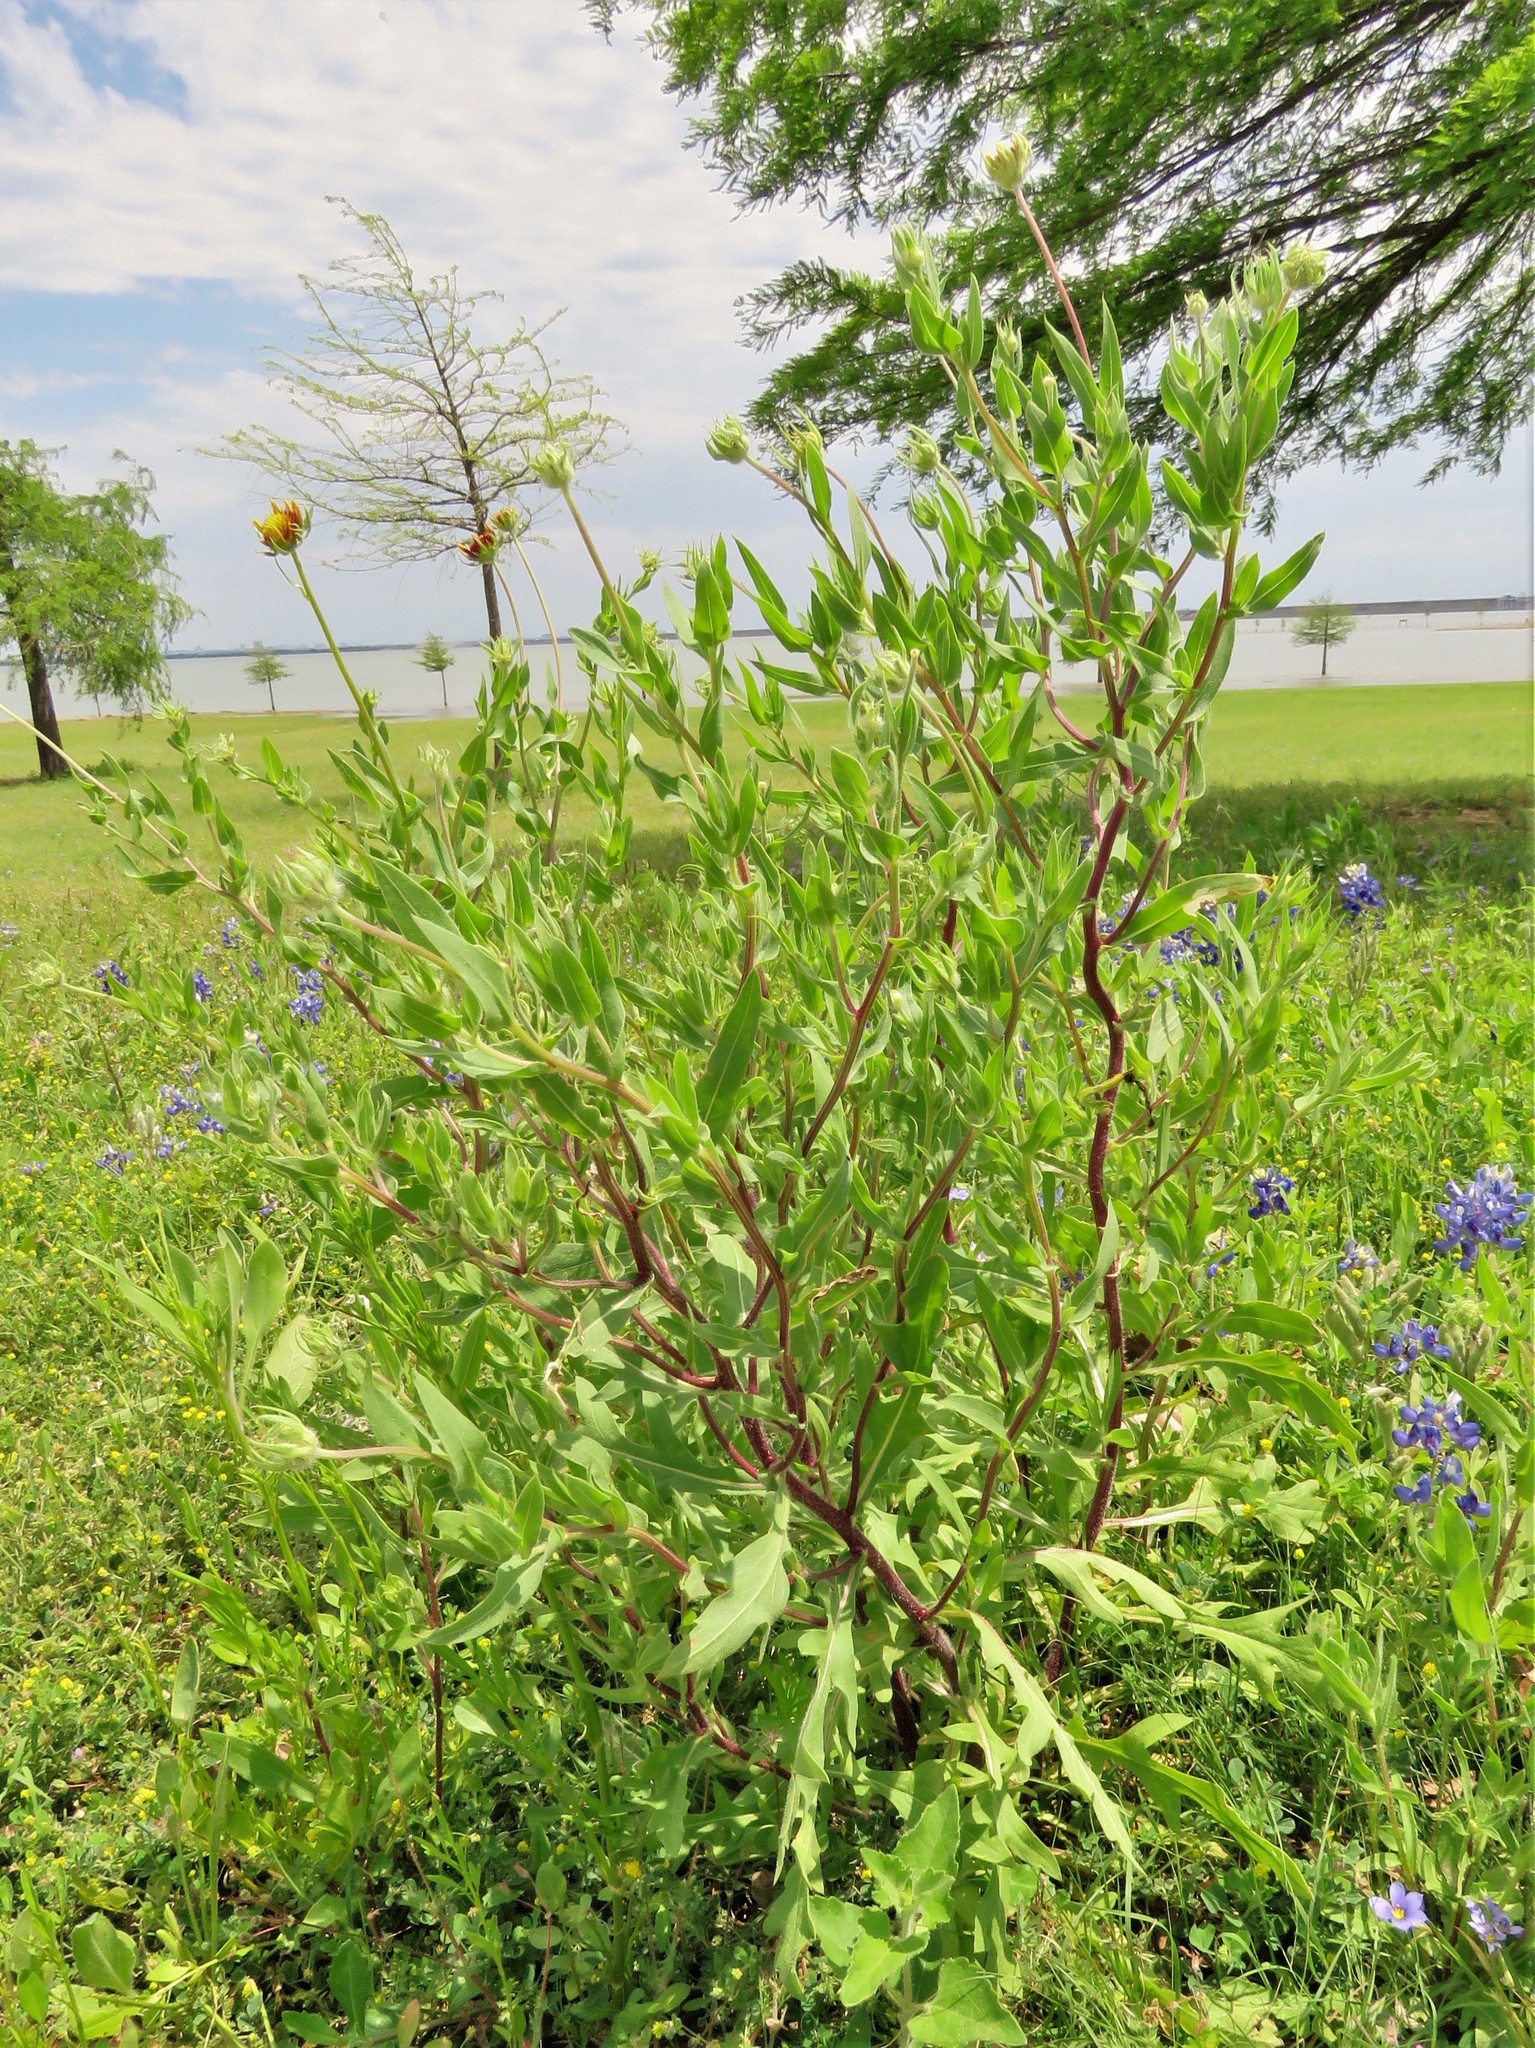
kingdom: Plantae
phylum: Tracheophyta
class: Magnoliopsida
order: Asterales
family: Asteraceae
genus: Gaillardia
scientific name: Gaillardia pulchella
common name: Firewheel
